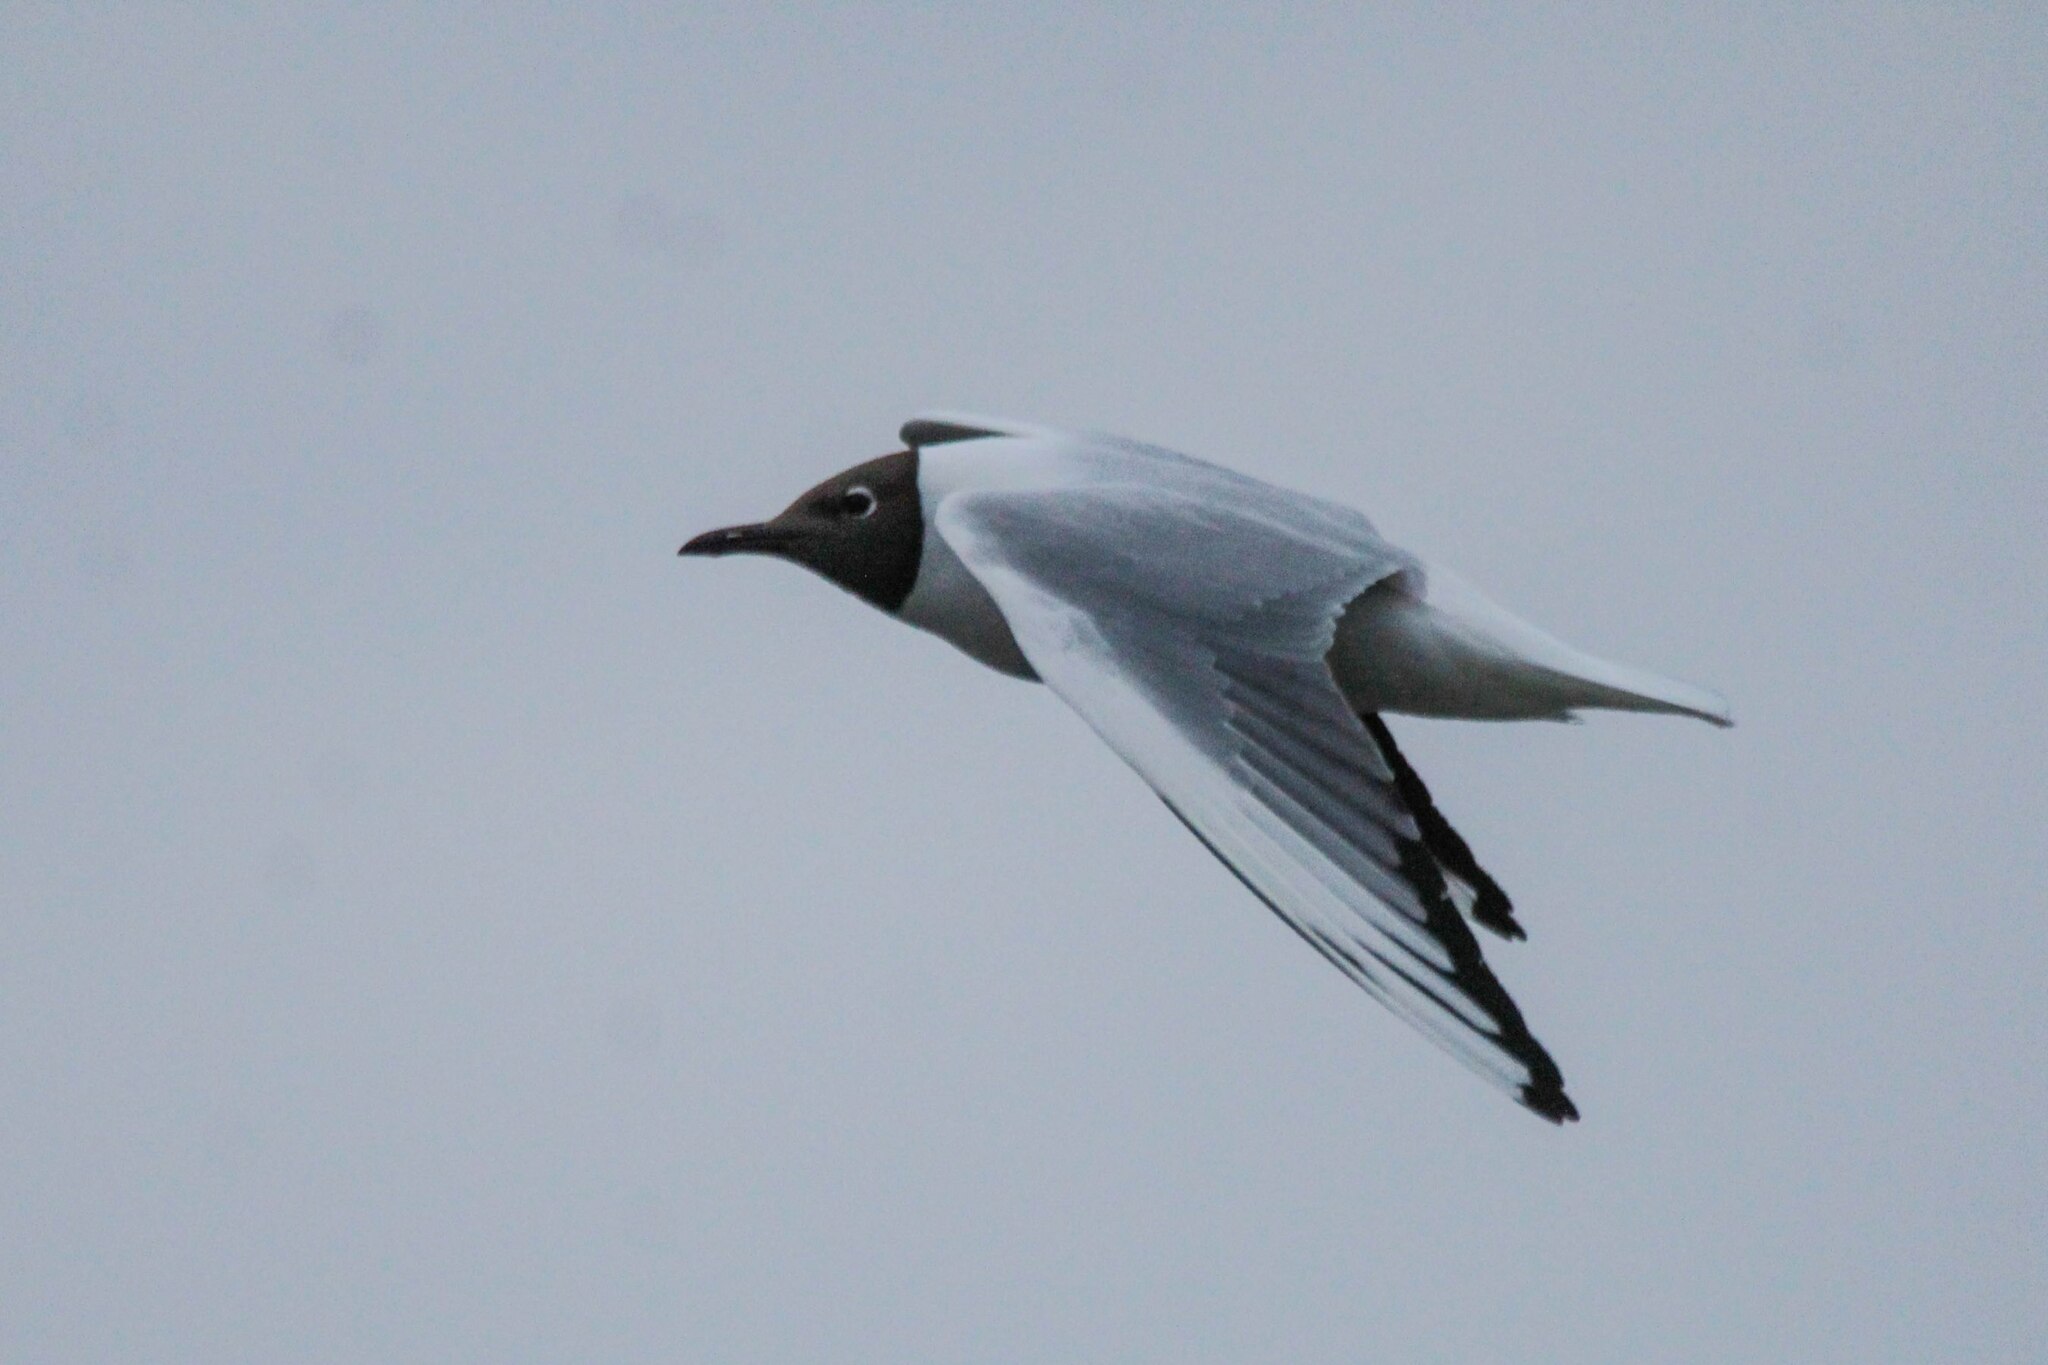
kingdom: Animalia
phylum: Chordata
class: Aves
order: Charadriiformes
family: Laridae
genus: Chroicocephalus
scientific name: Chroicocephalus ridibundus
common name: Black-headed gull
